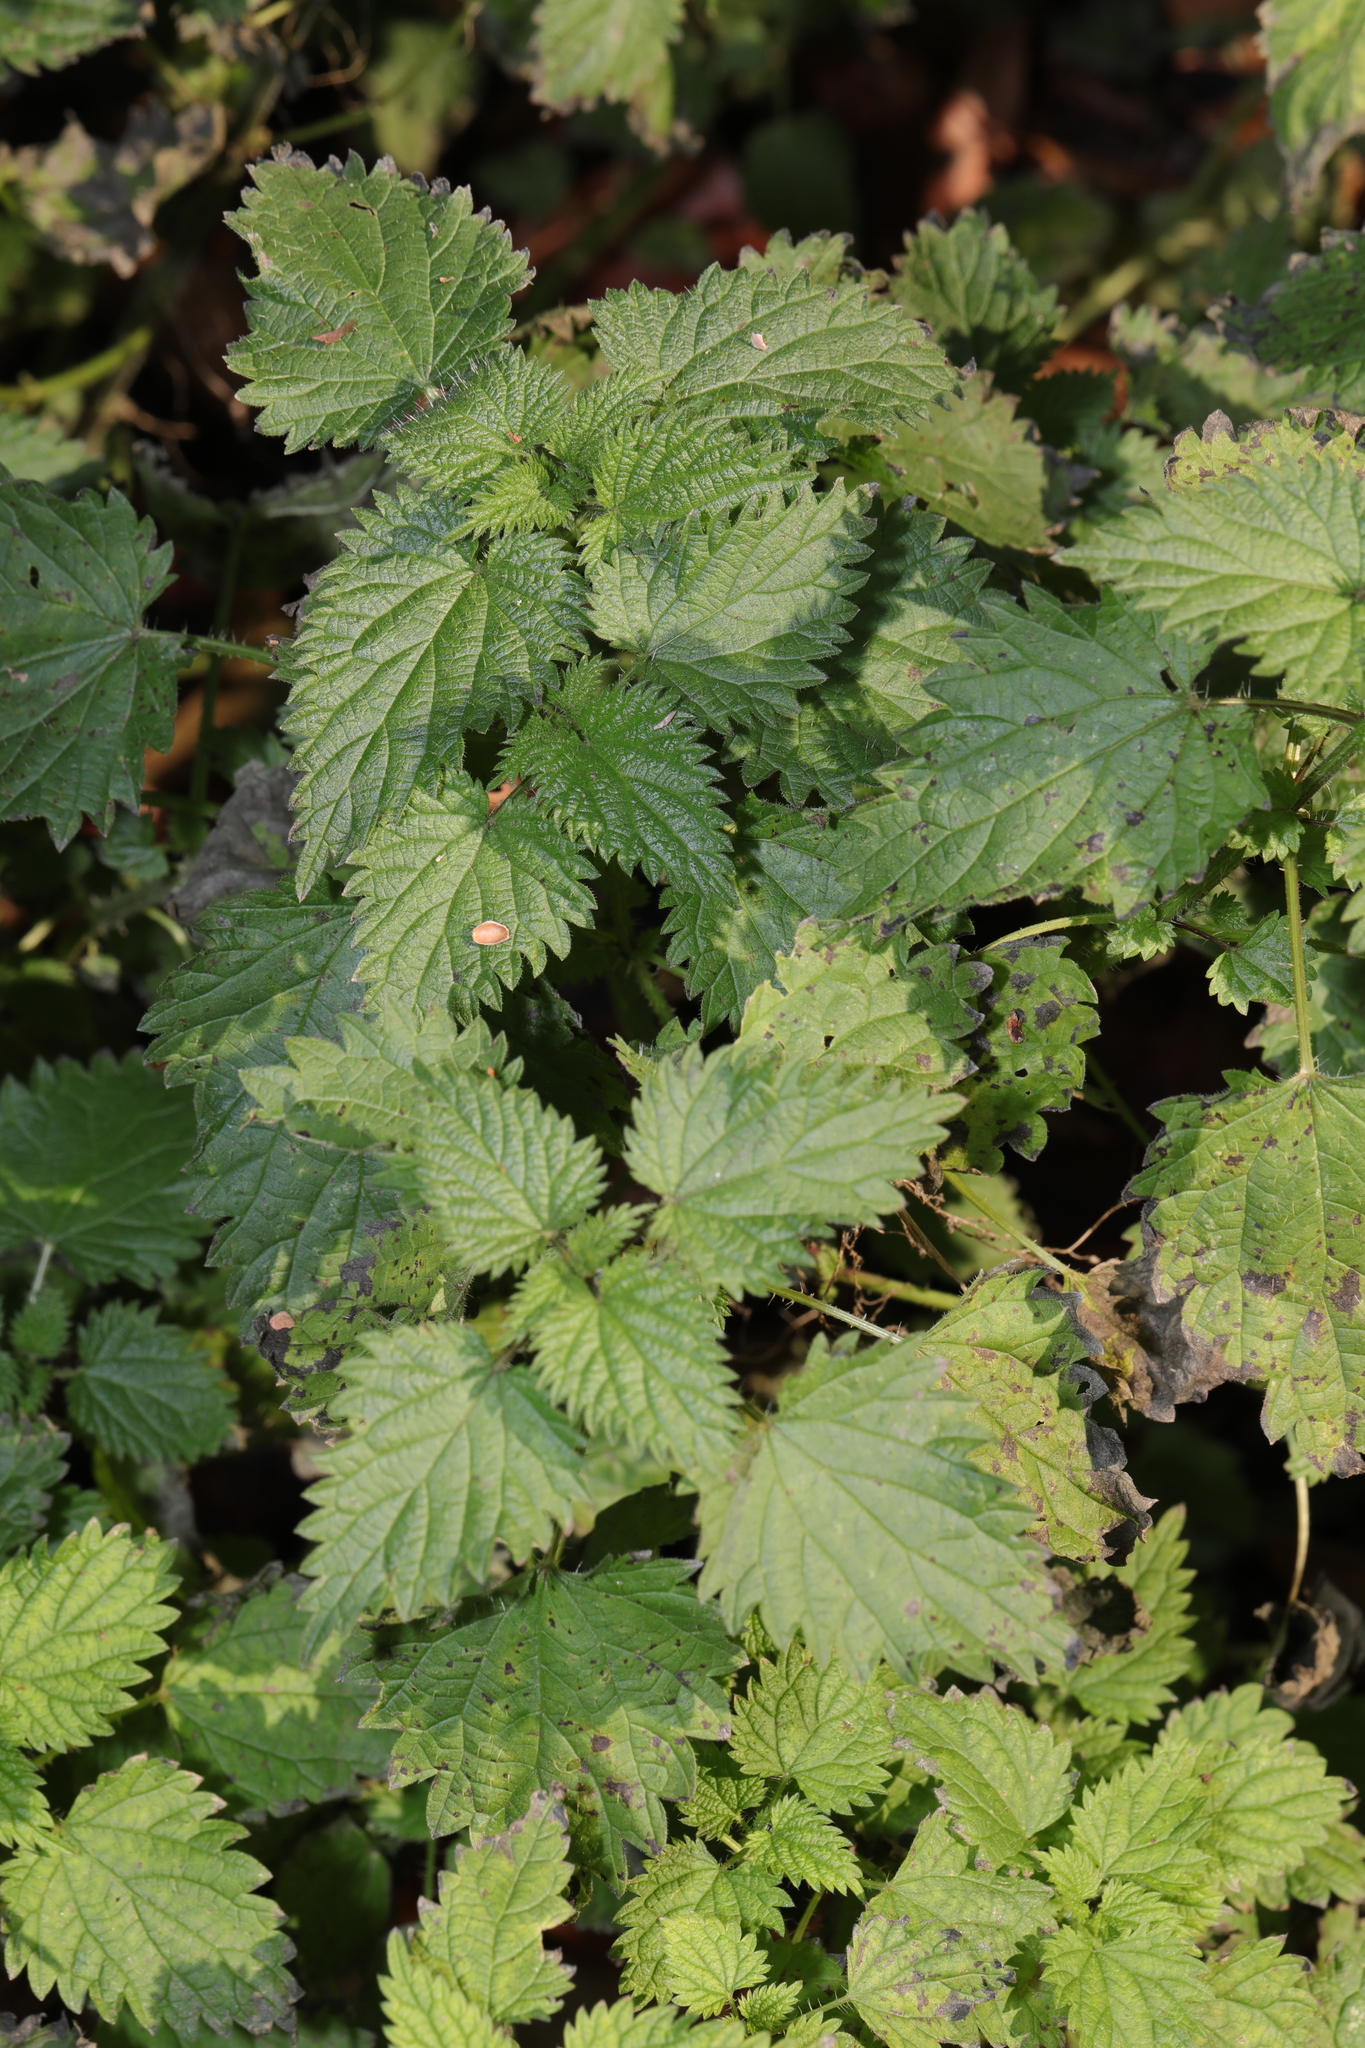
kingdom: Plantae
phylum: Tracheophyta
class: Magnoliopsida
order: Rosales
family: Urticaceae
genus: Urtica
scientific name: Urtica dioica
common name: Common nettle
